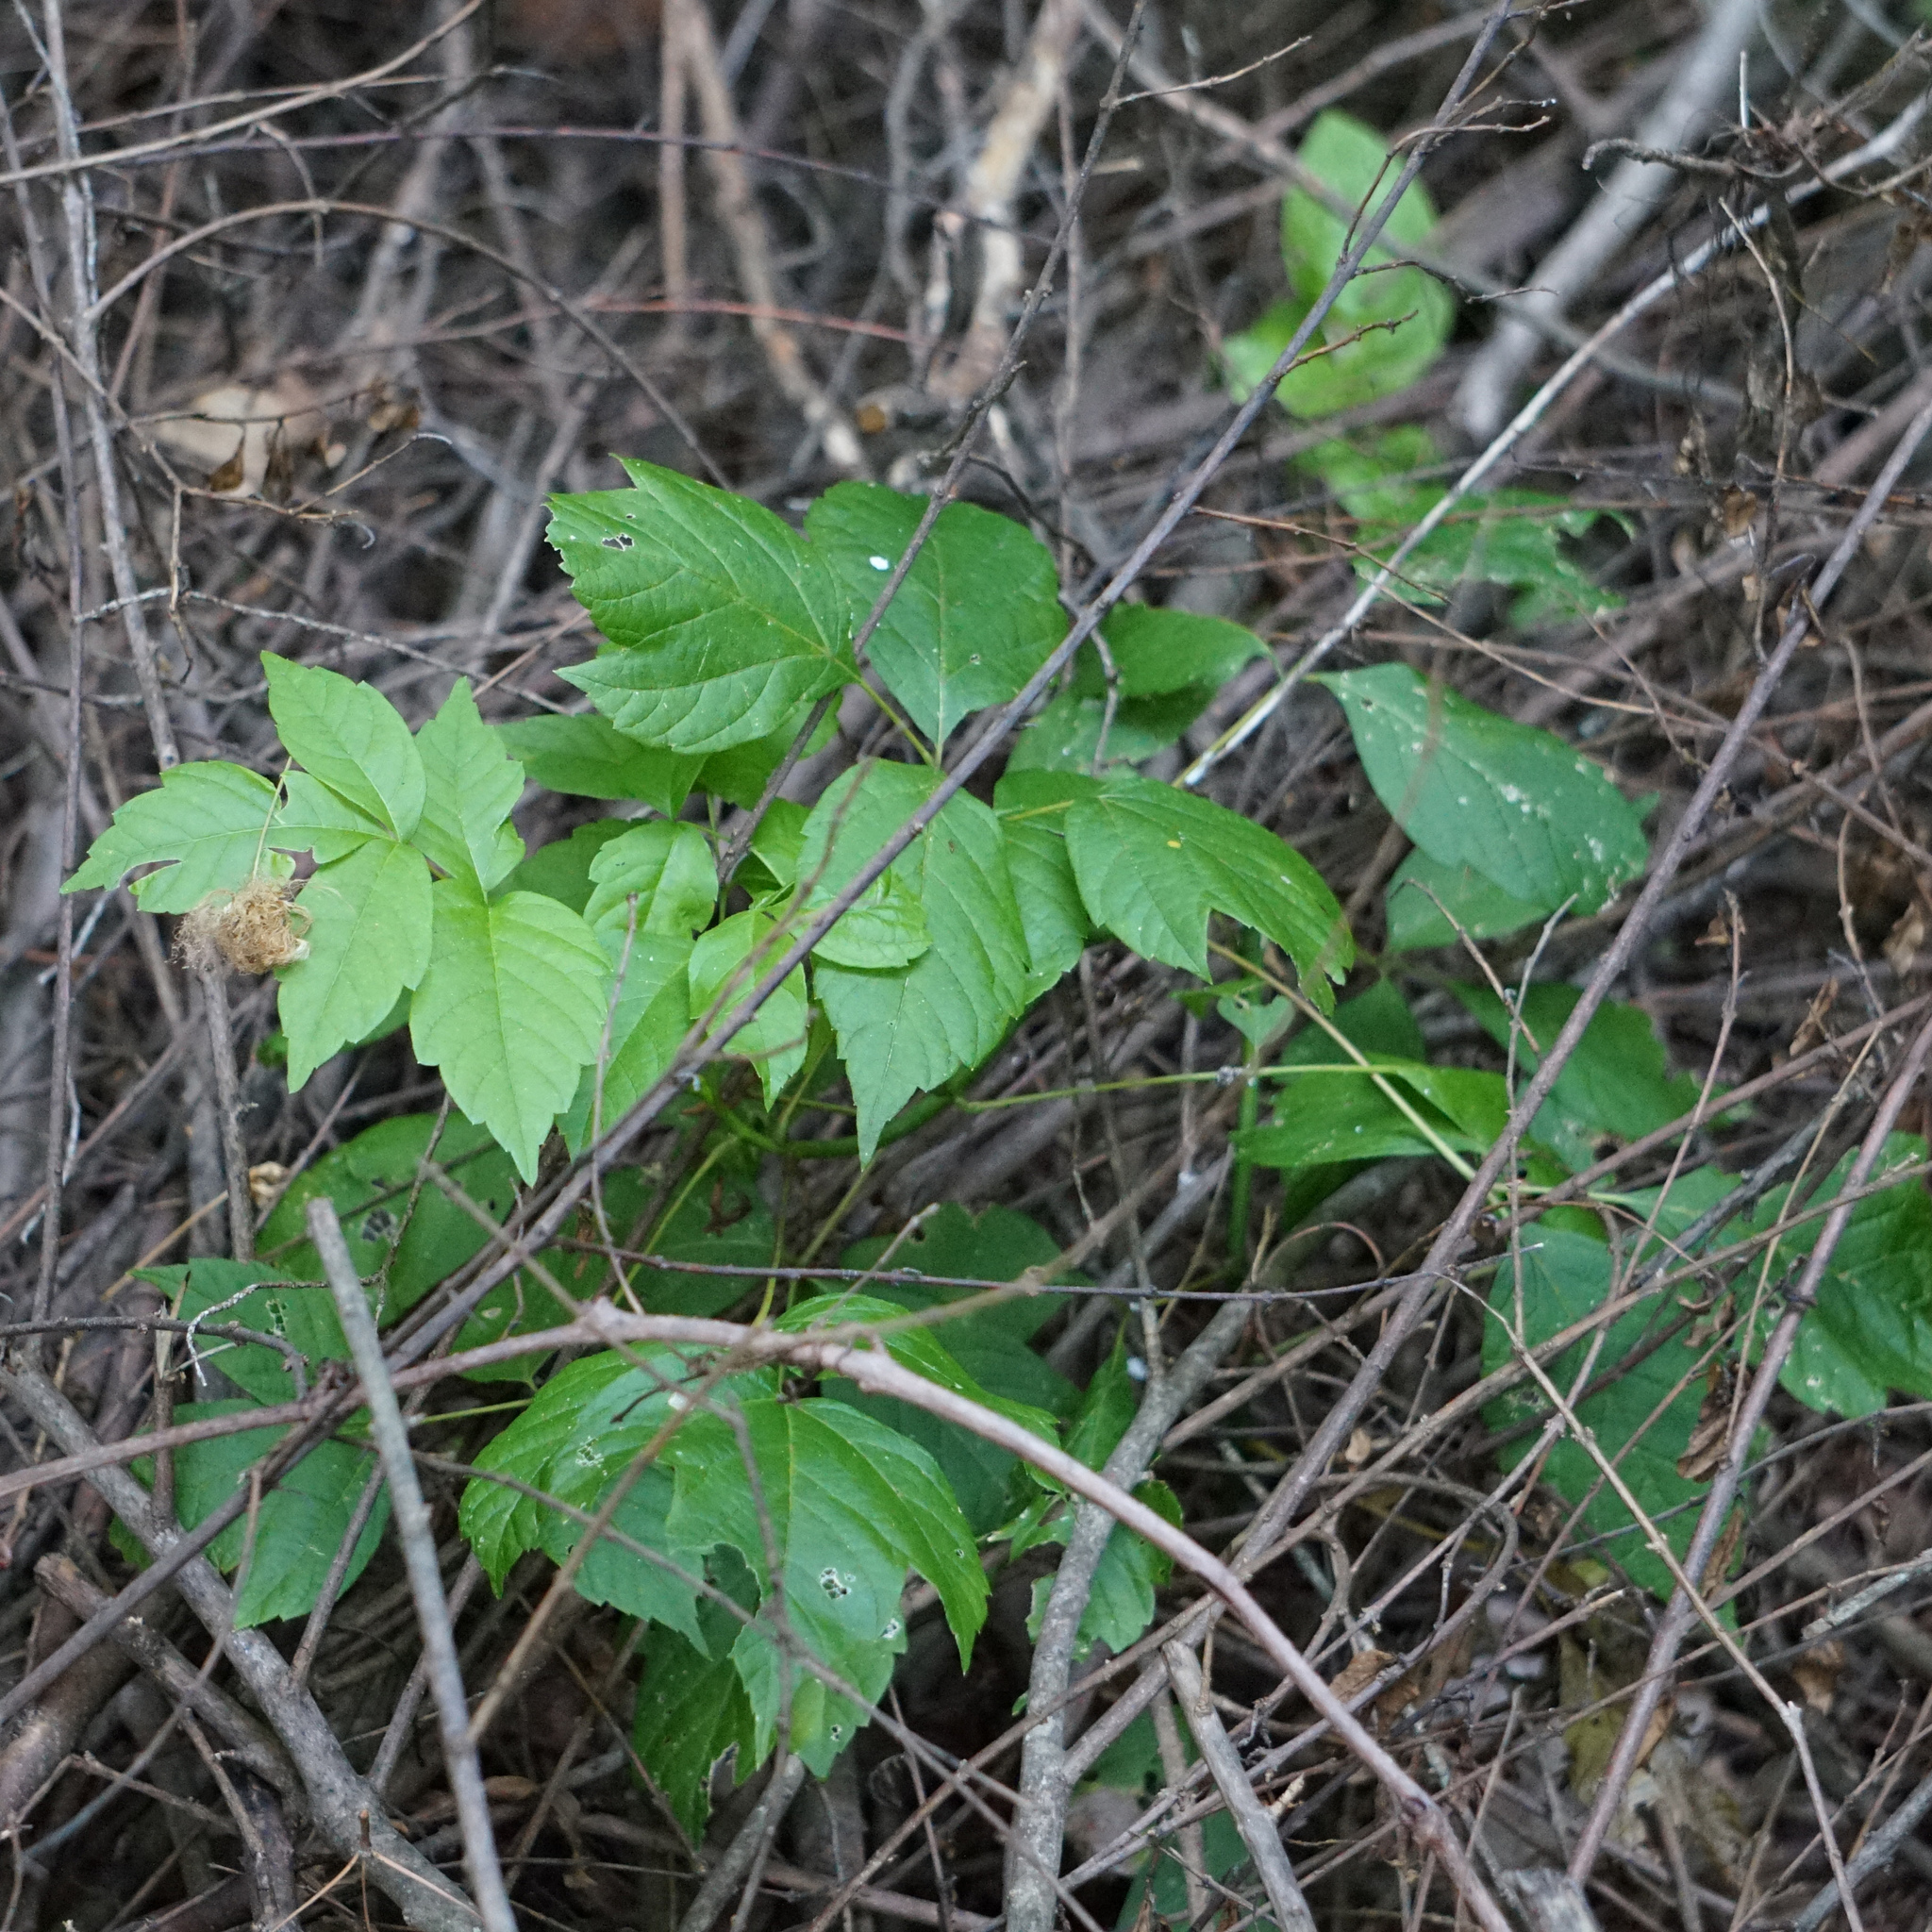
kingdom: Plantae
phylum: Tracheophyta
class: Magnoliopsida
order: Lamiales
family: Bignoniaceae
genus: Campsis
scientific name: Campsis radicans
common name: Trumpet-creeper
